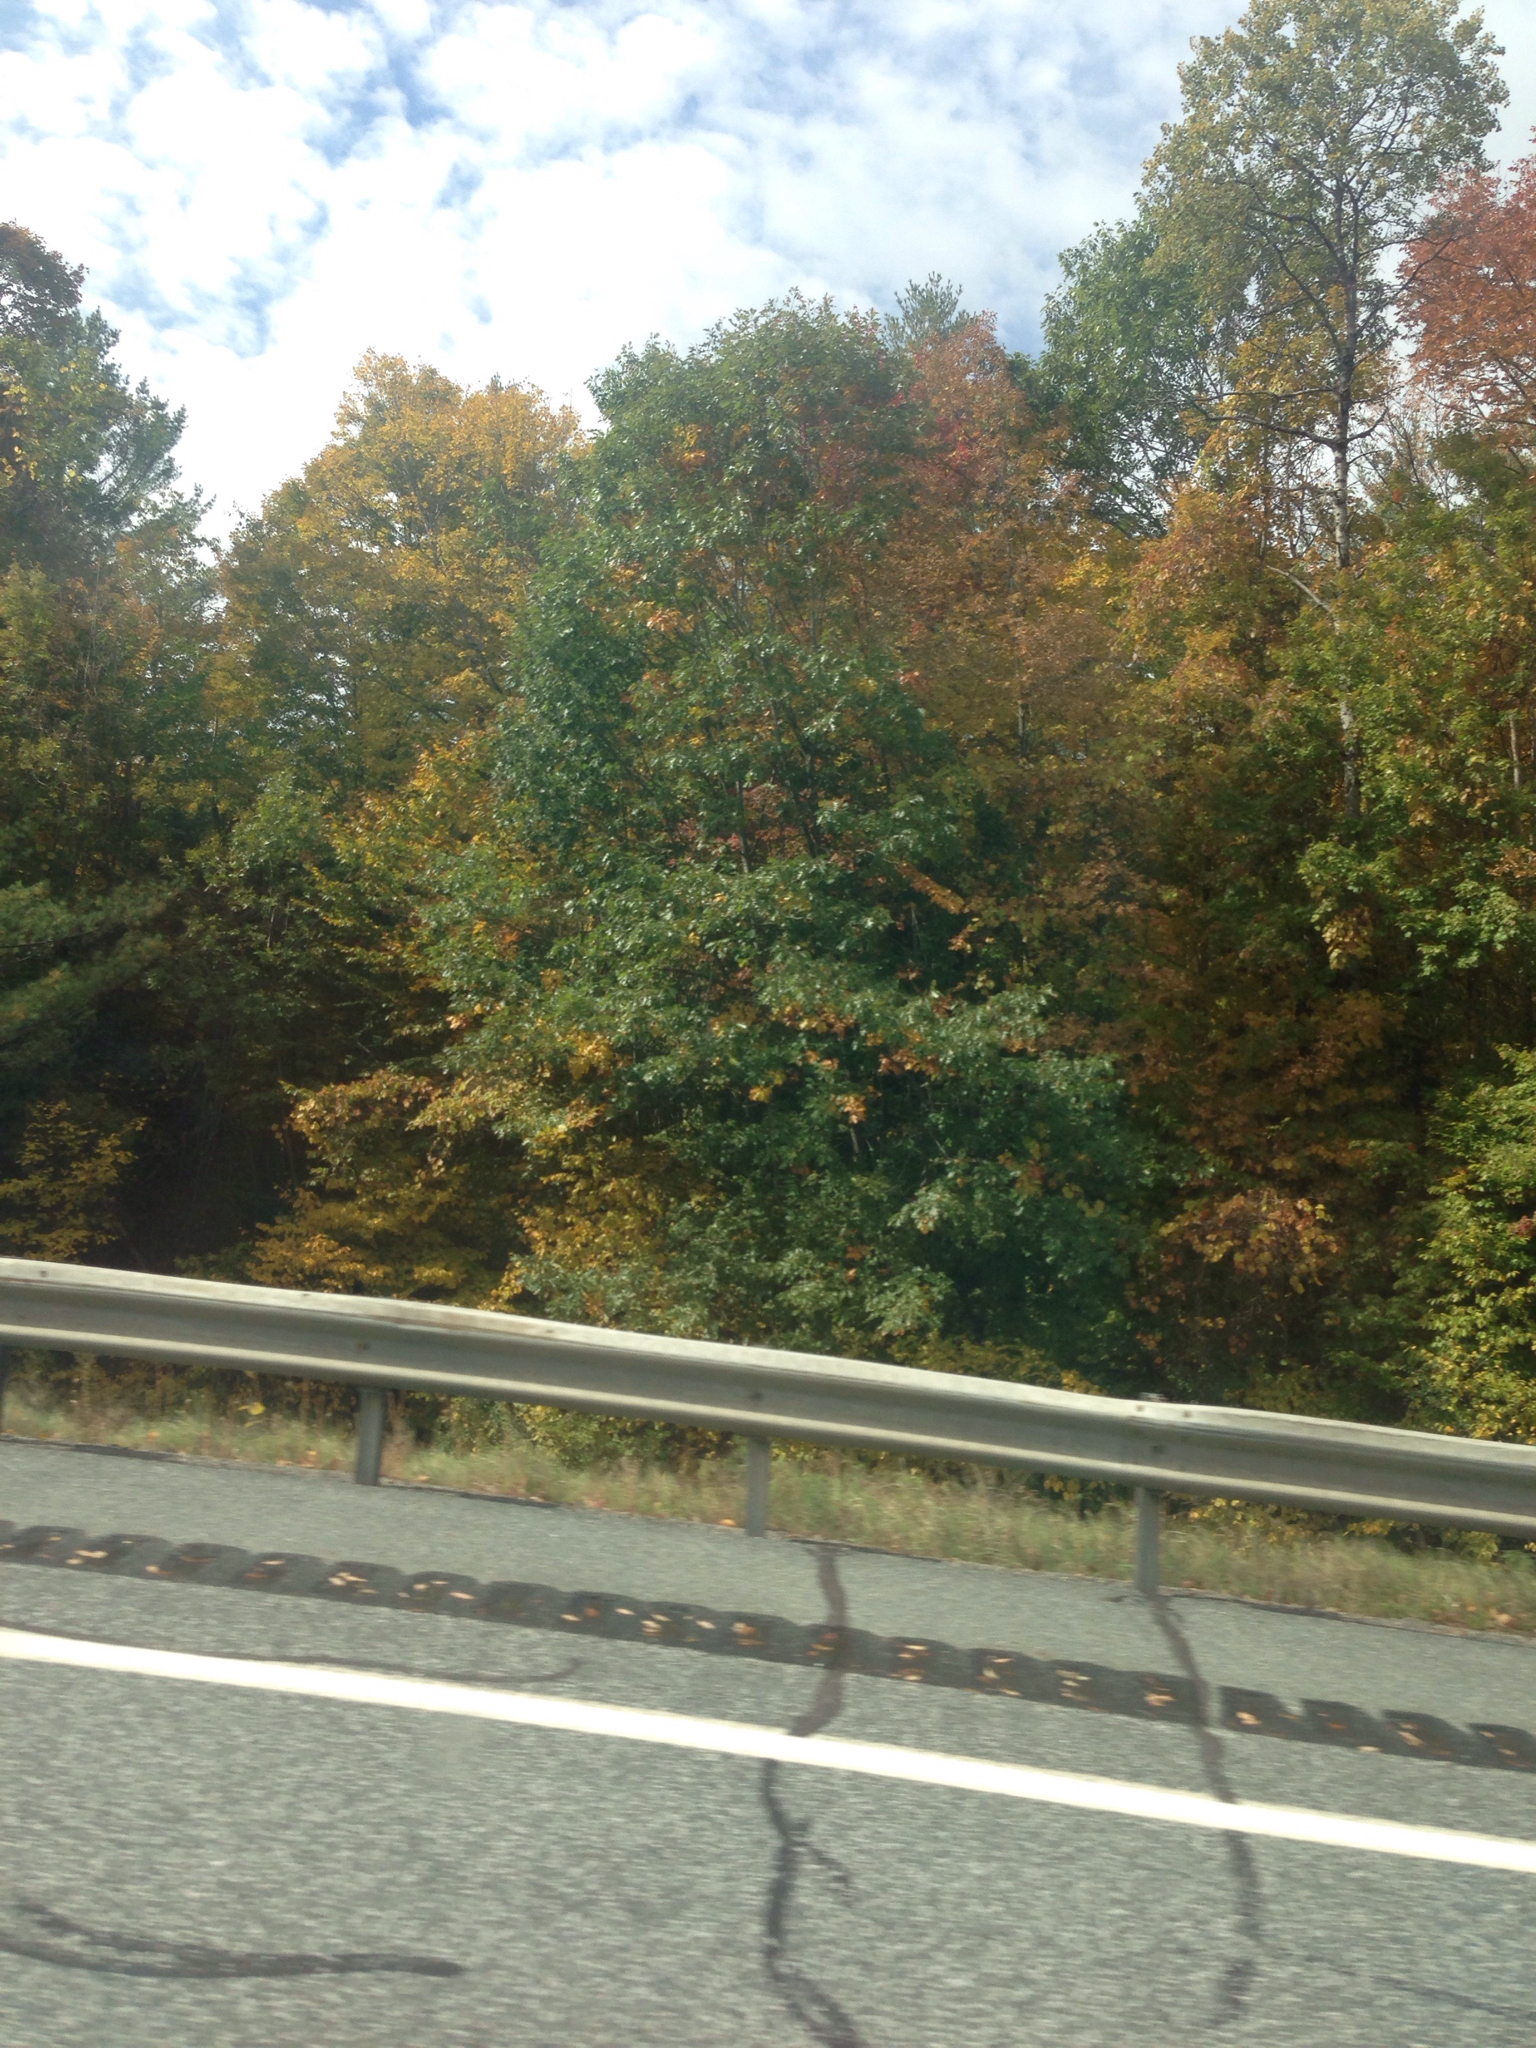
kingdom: Plantae
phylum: Tracheophyta
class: Magnoliopsida
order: Fagales
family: Fagaceae
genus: Quercus
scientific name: Quercus rubra
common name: Red oak
